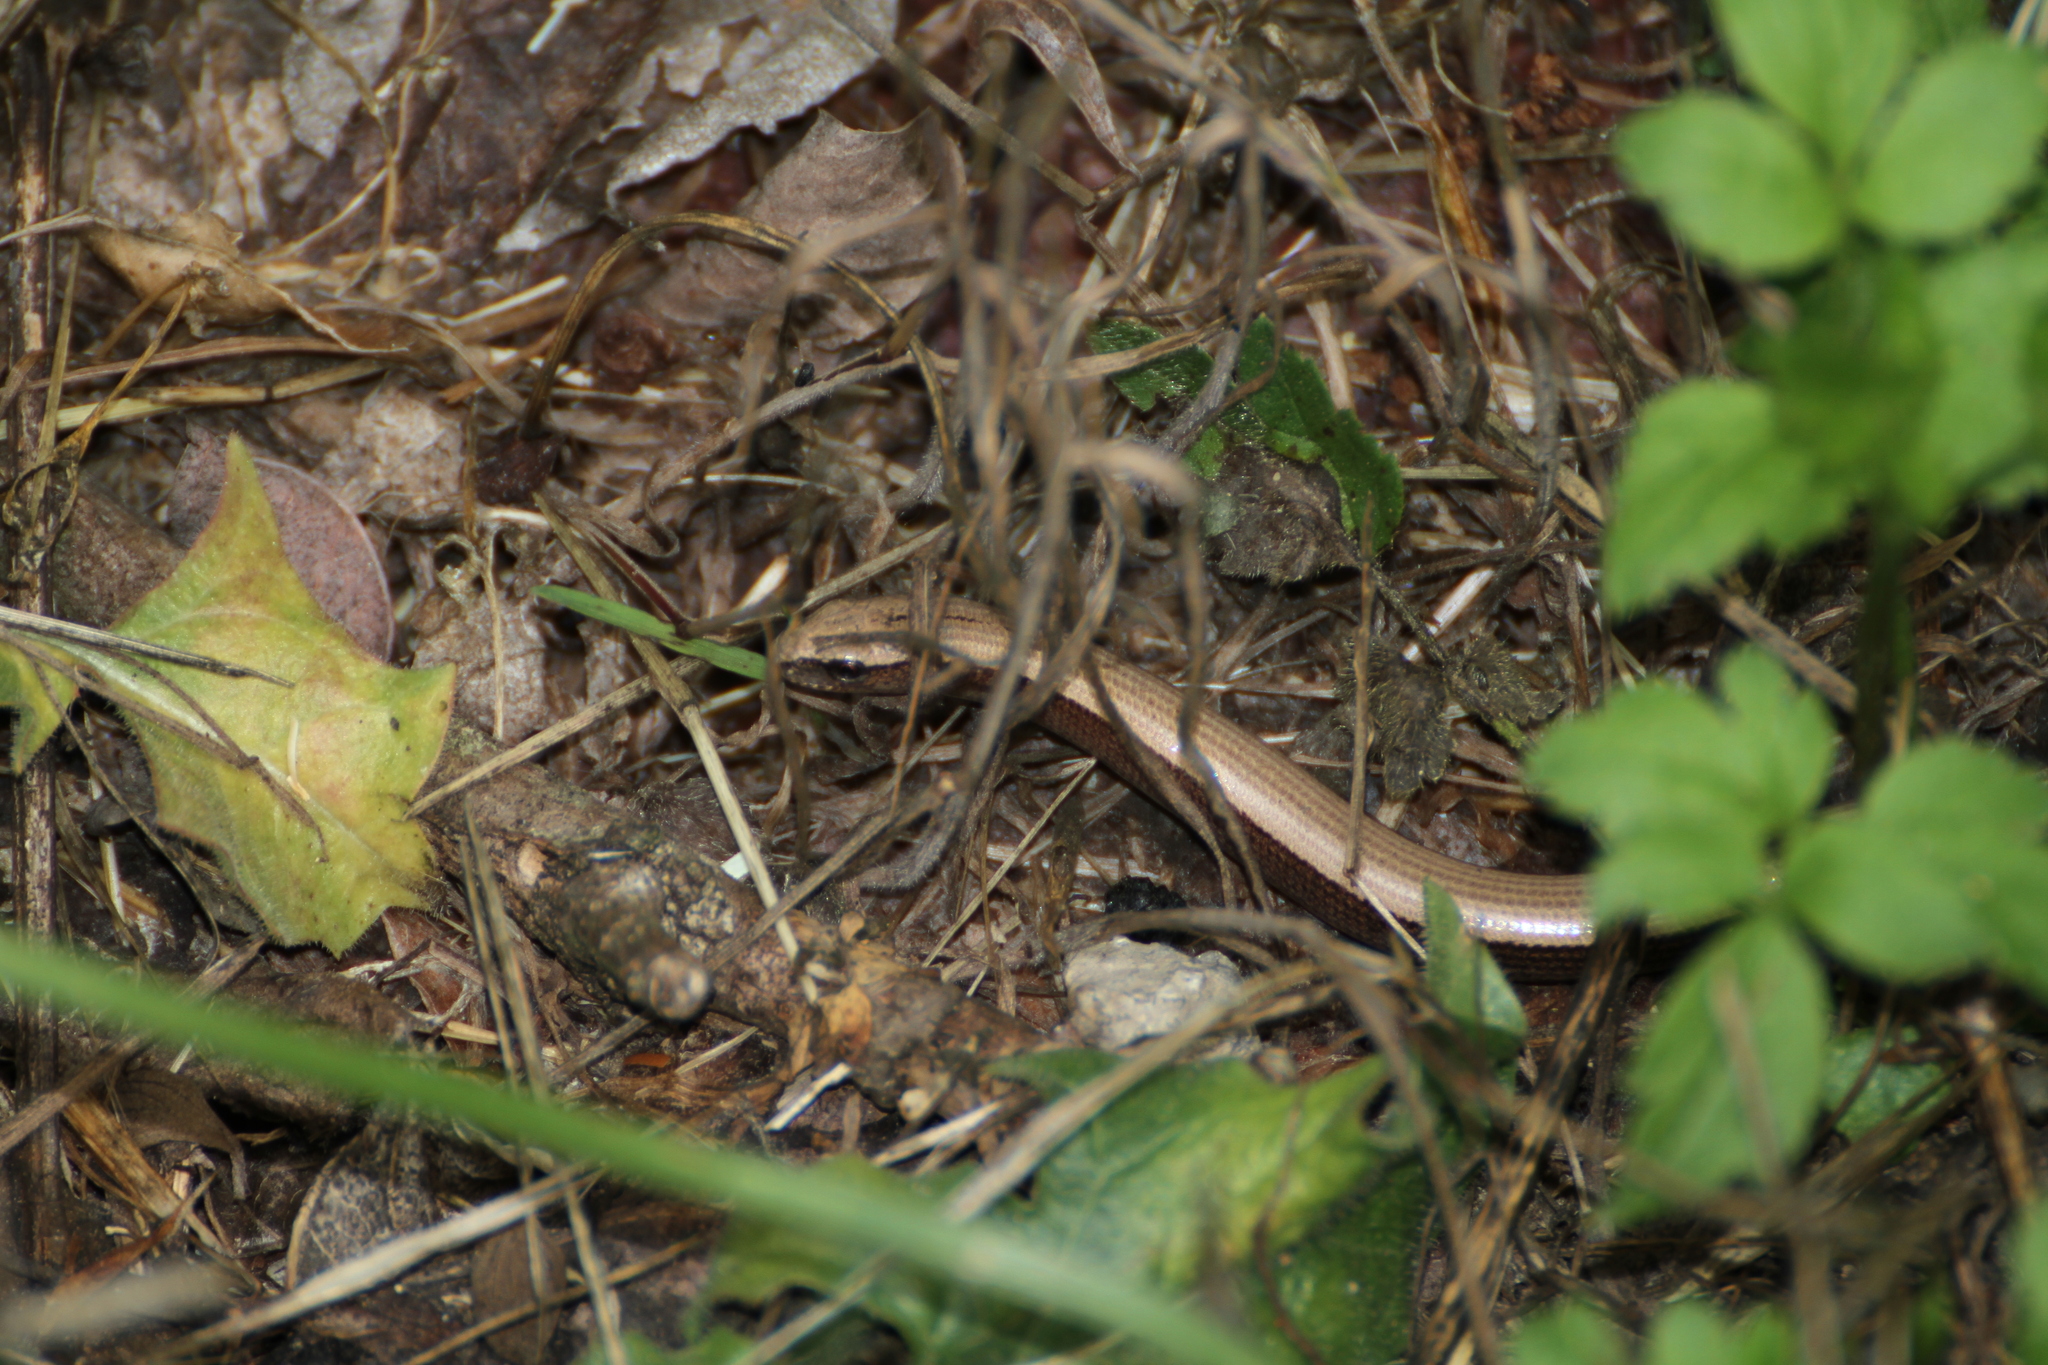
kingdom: Animalia
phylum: Chordata
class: Squamata
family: Anguidae
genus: Anguis
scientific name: Anguis veronensis
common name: Italian slow worm
